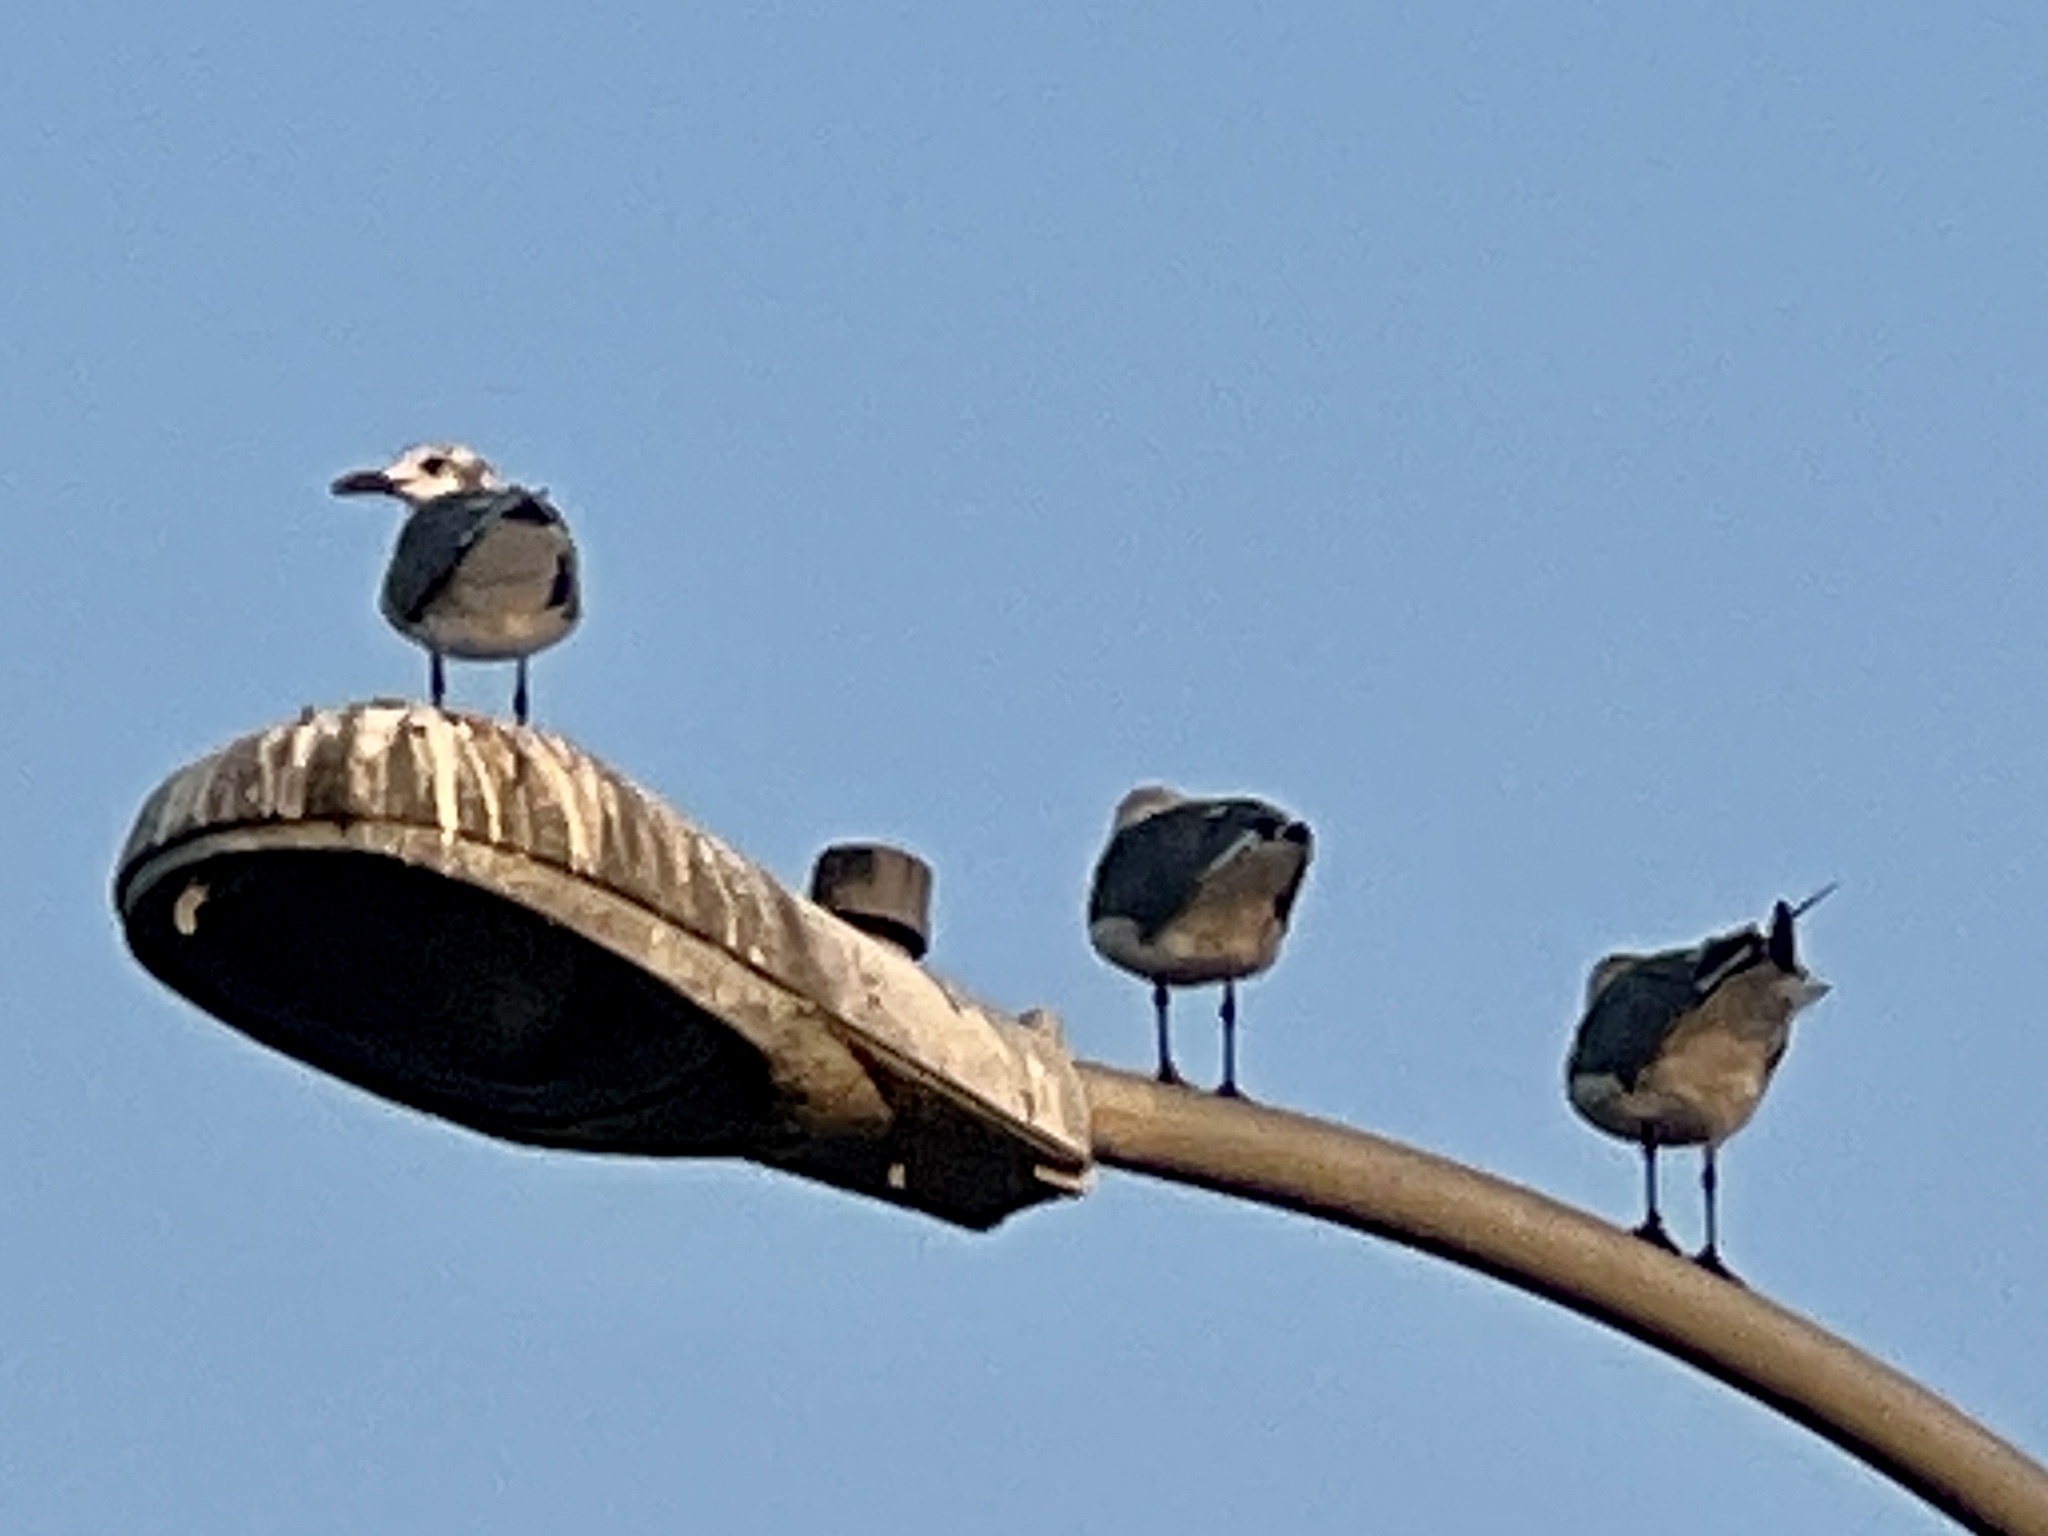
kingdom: Animalia
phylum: Chordata
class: Aves
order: Charadriiformes
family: Laridae
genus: Leucophaeus
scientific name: Leucophaeus atricilla
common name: Laughing gull
